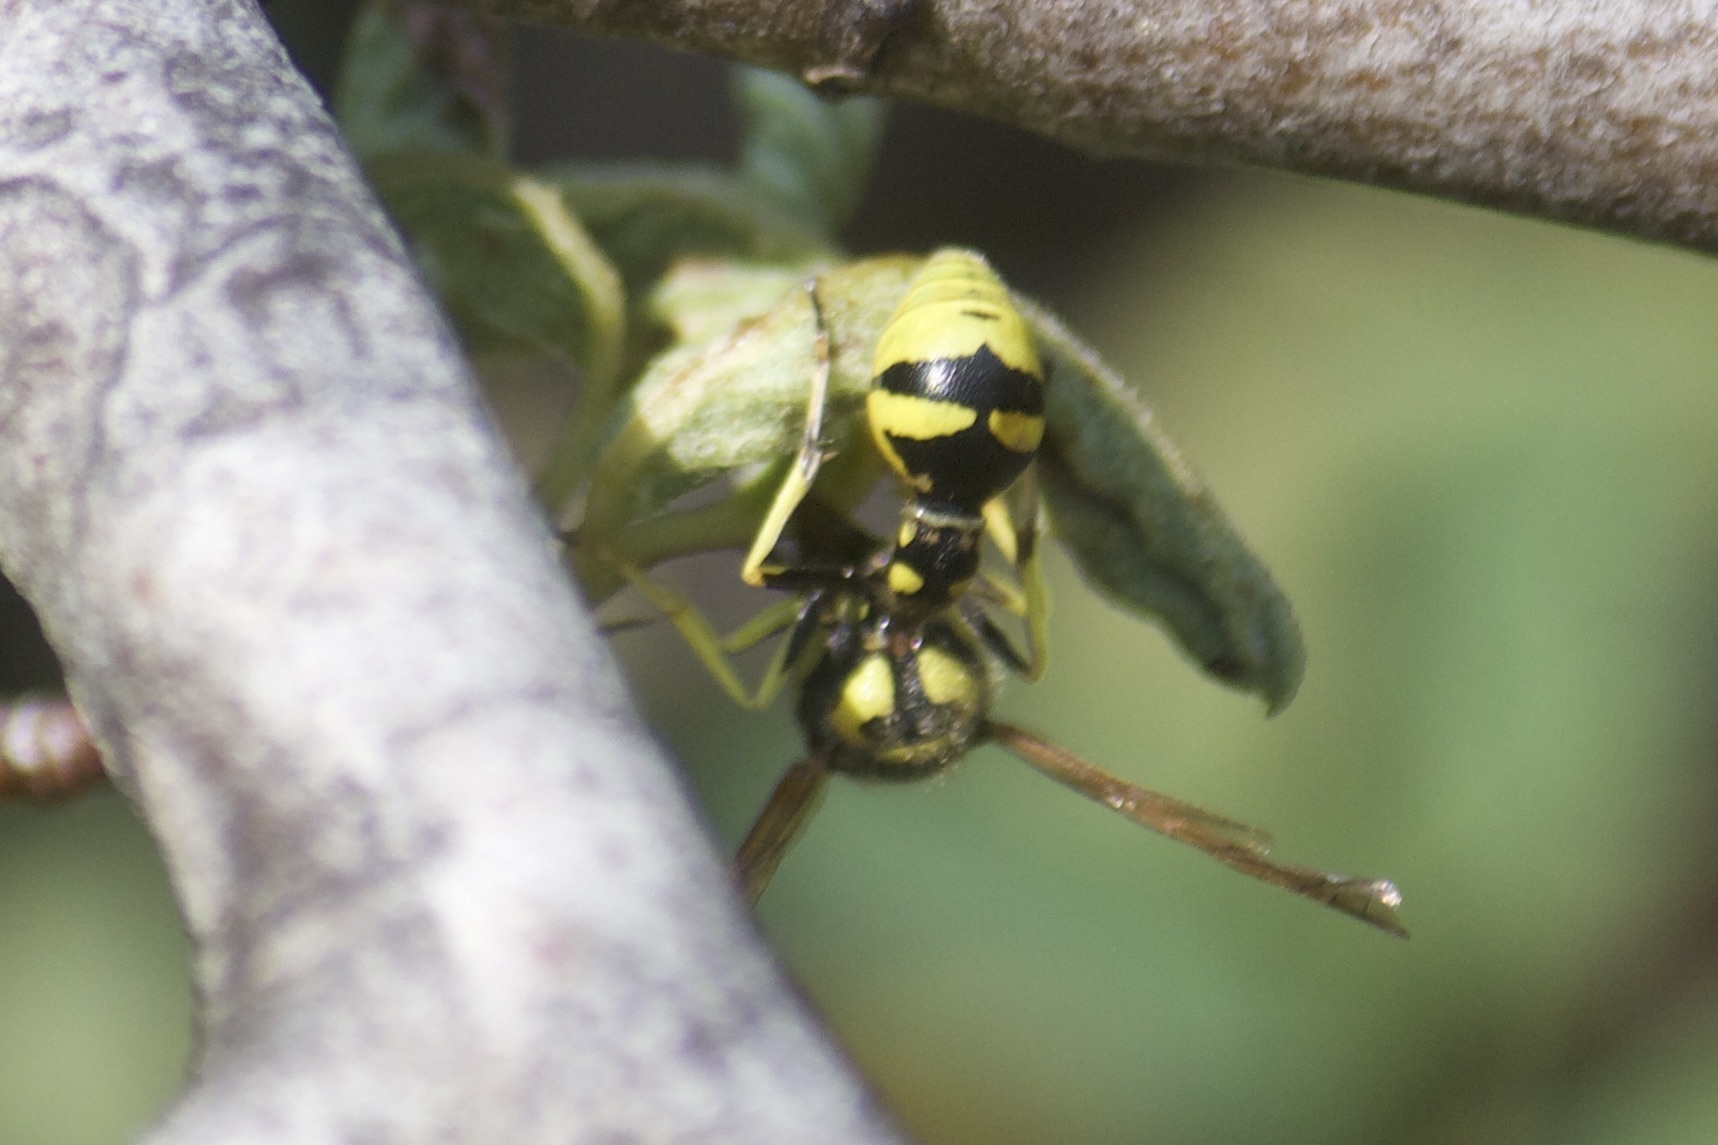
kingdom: Animalia
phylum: Arthropoda
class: Insecta
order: Hymenoptera
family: Vespidae
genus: Eumenes
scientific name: Eumenes verticalis
